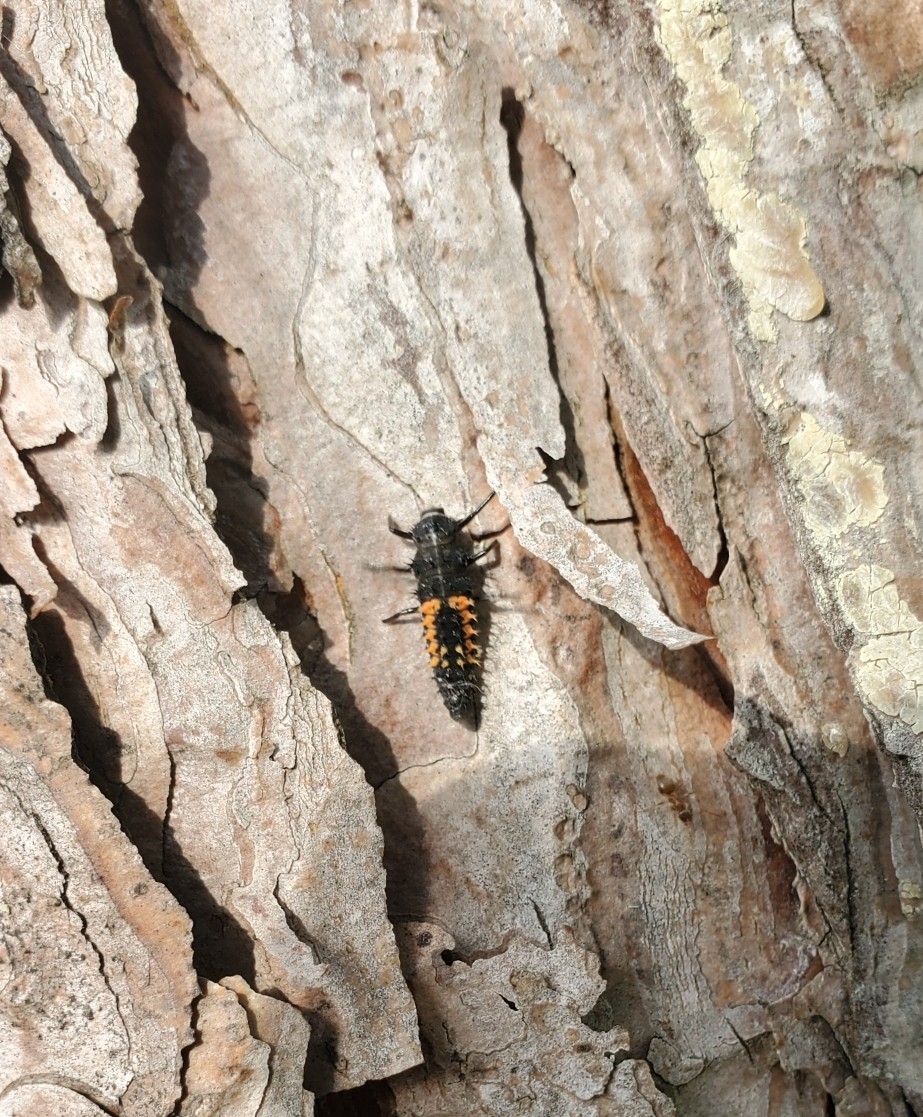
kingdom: Animalia
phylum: Arthropoda
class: Insecta
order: Coleoptera
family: Coccinellidae
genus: Harmonia
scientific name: Harmonia axyridis
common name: Harlequin ladybird
